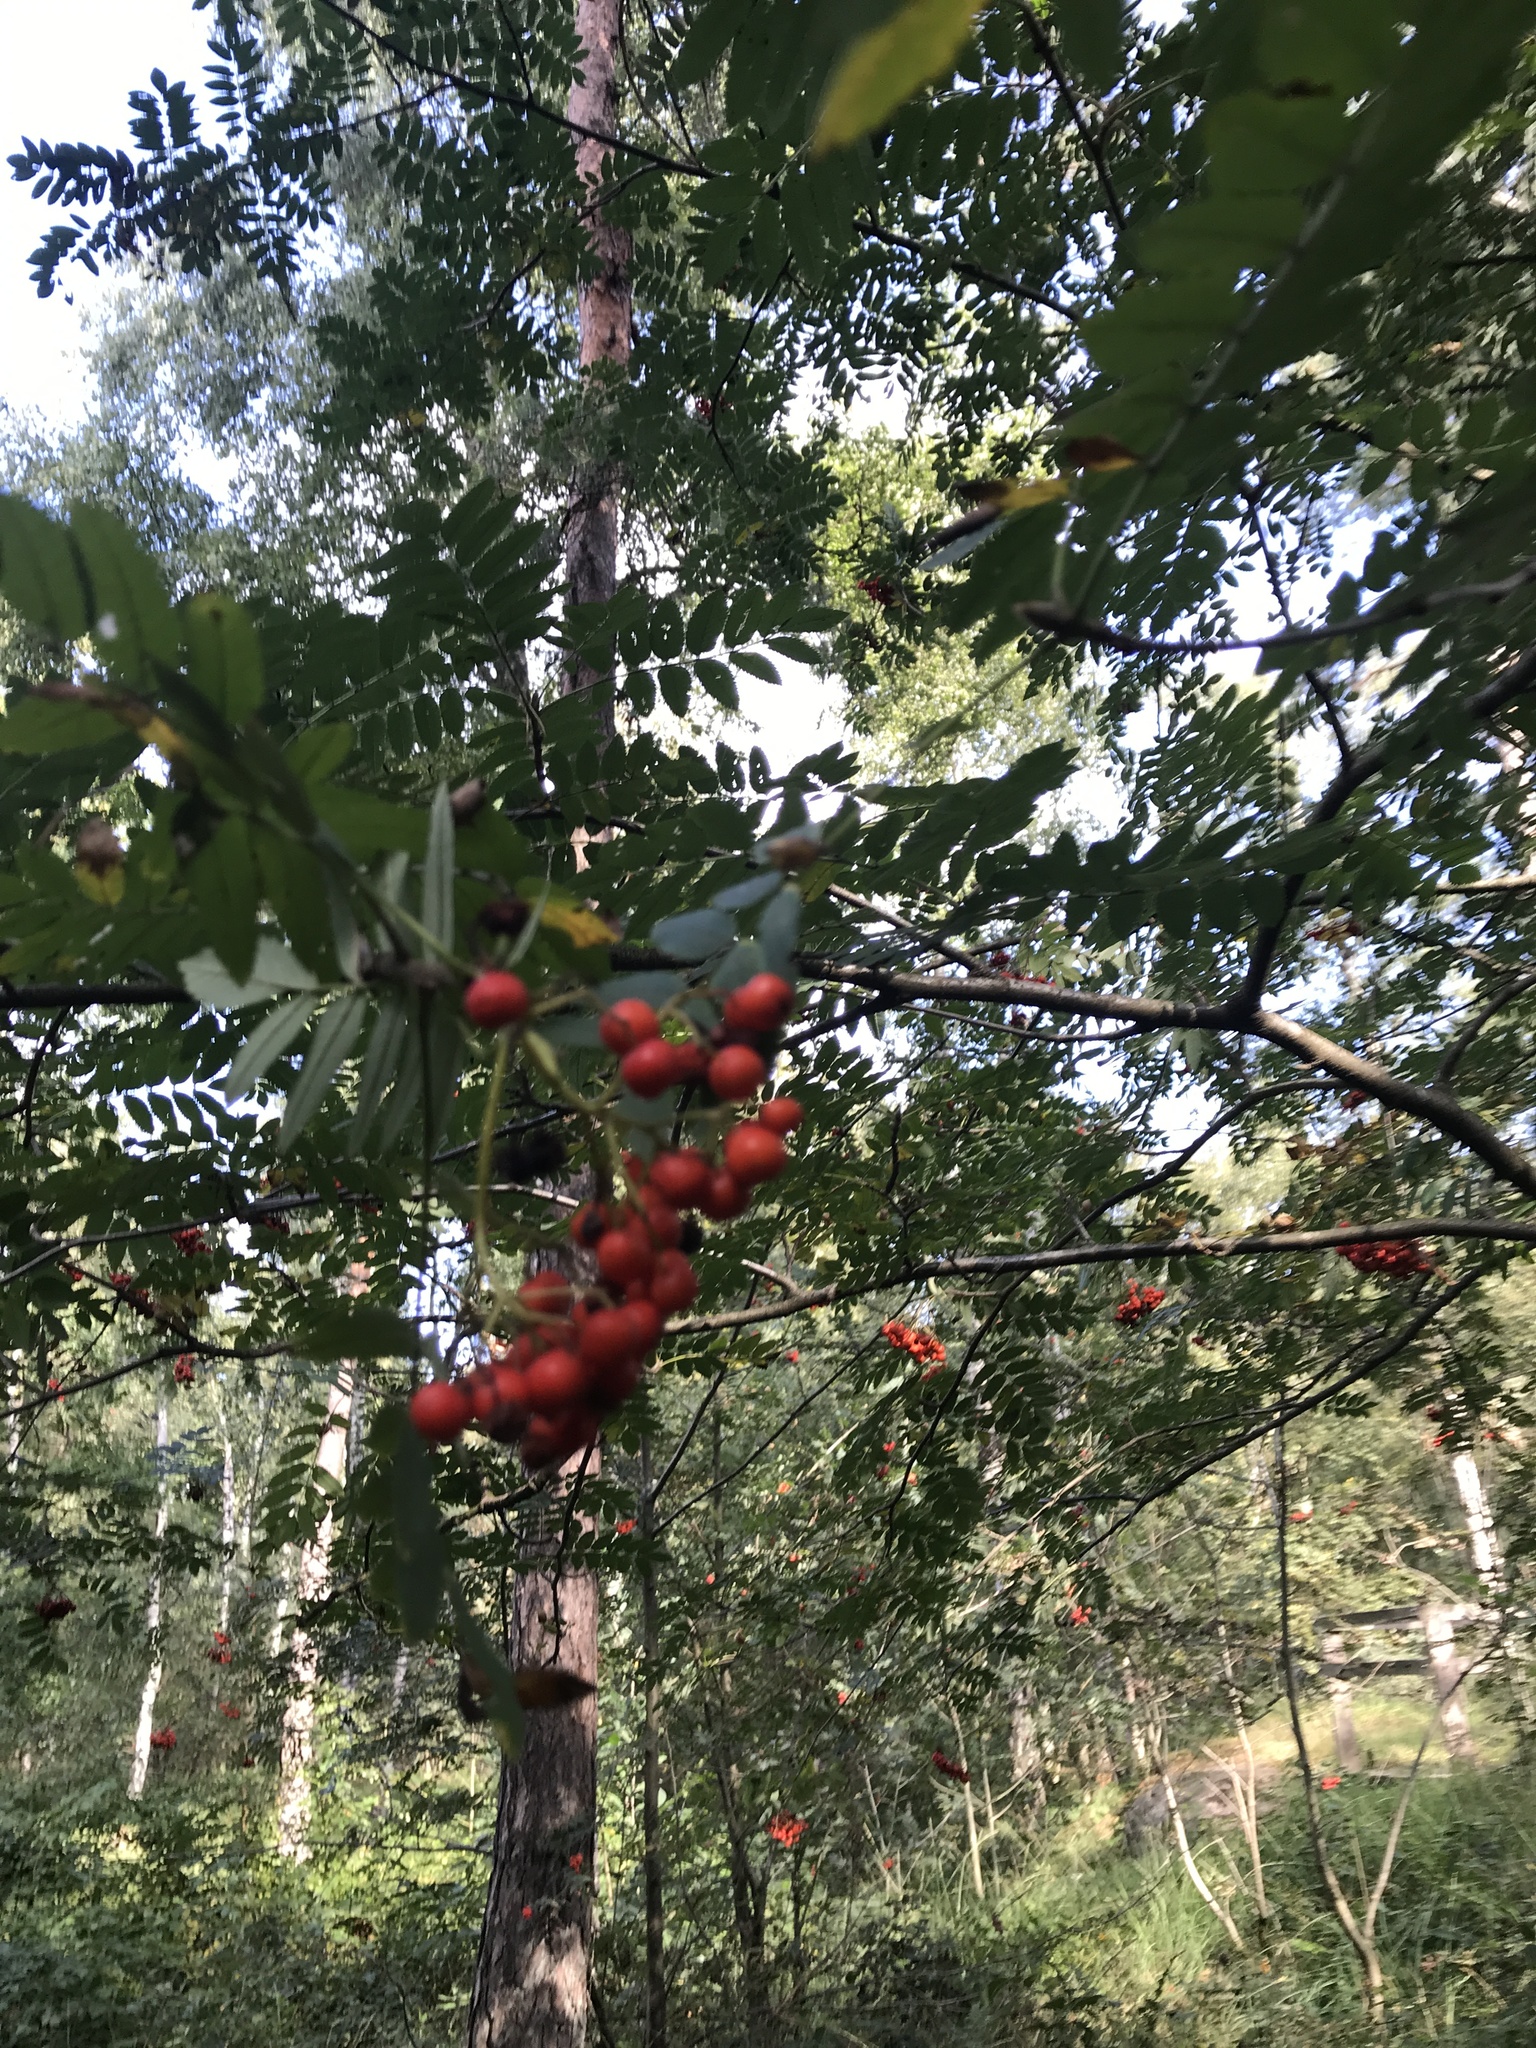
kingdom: Plantae
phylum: Tracheophyta
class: Magnoliopsida
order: Rosales
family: Rosaceae
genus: Sorbus
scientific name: Sorbus aucuparia
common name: Rowan
